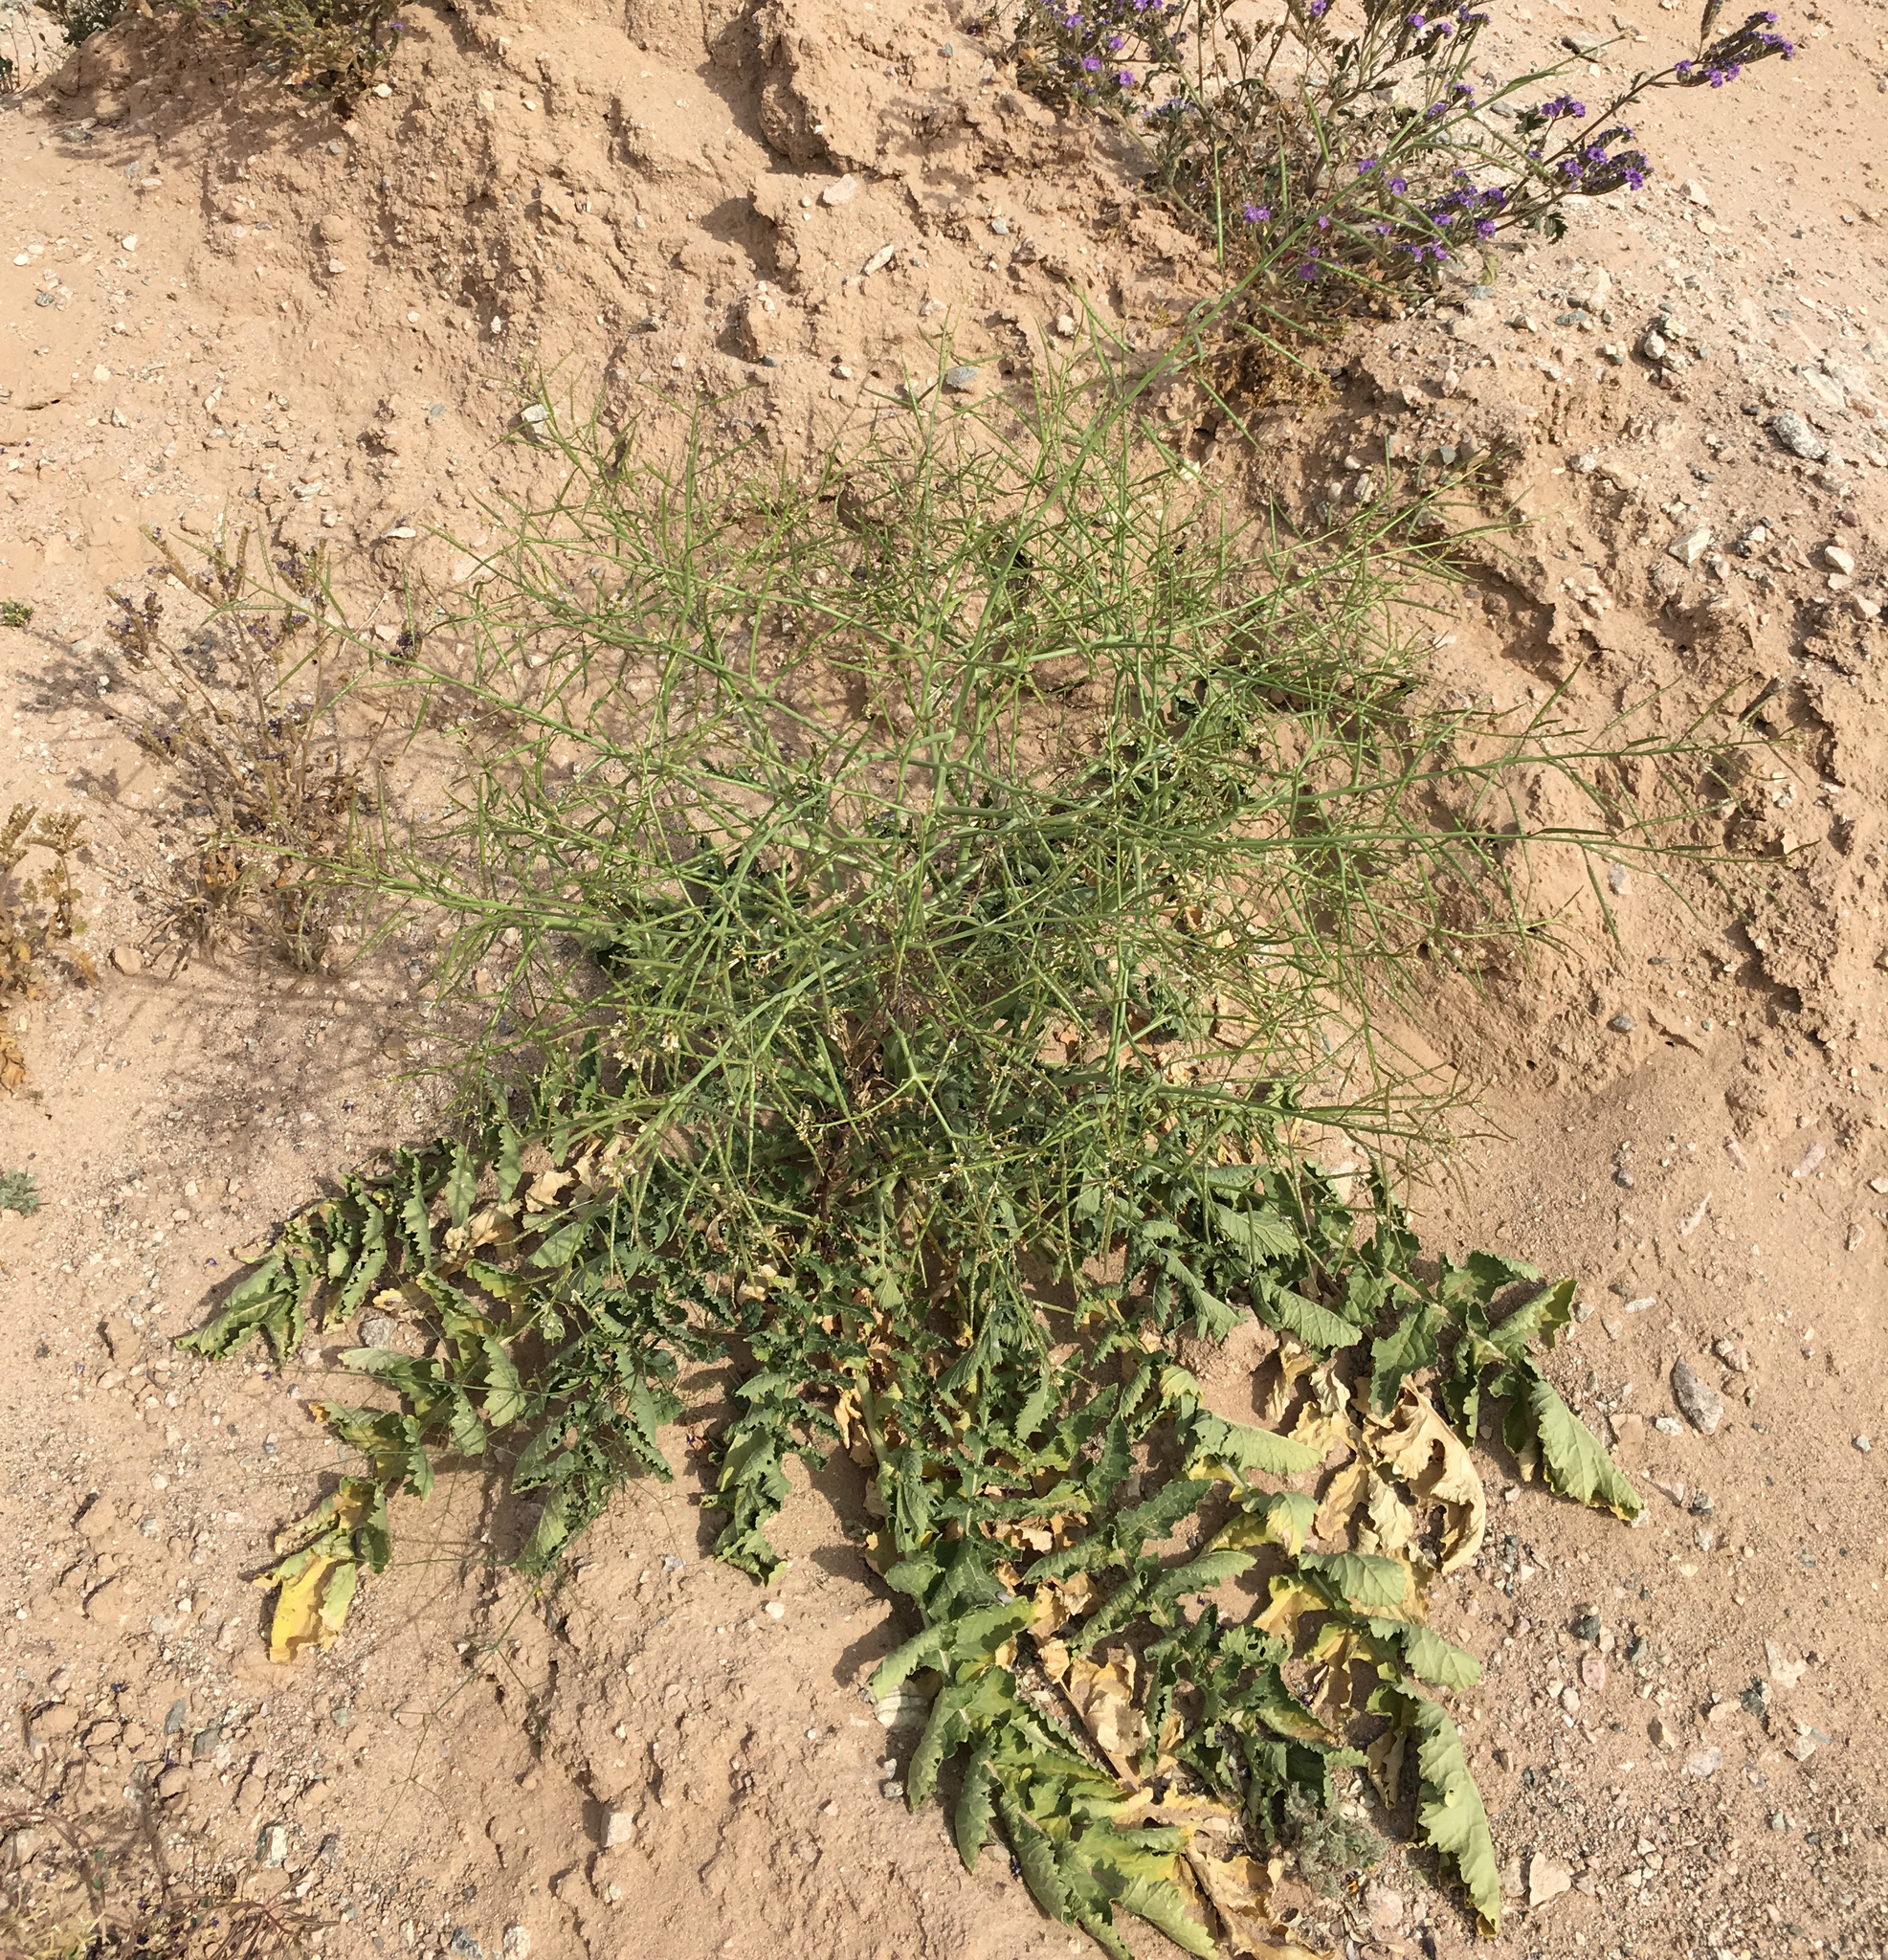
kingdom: Plantae
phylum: Tracheophyta
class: Magnoliopsida
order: Brassicales
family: Brassicaceae
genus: Brassica
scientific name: Brassica tournefortii
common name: Pale cabbage
